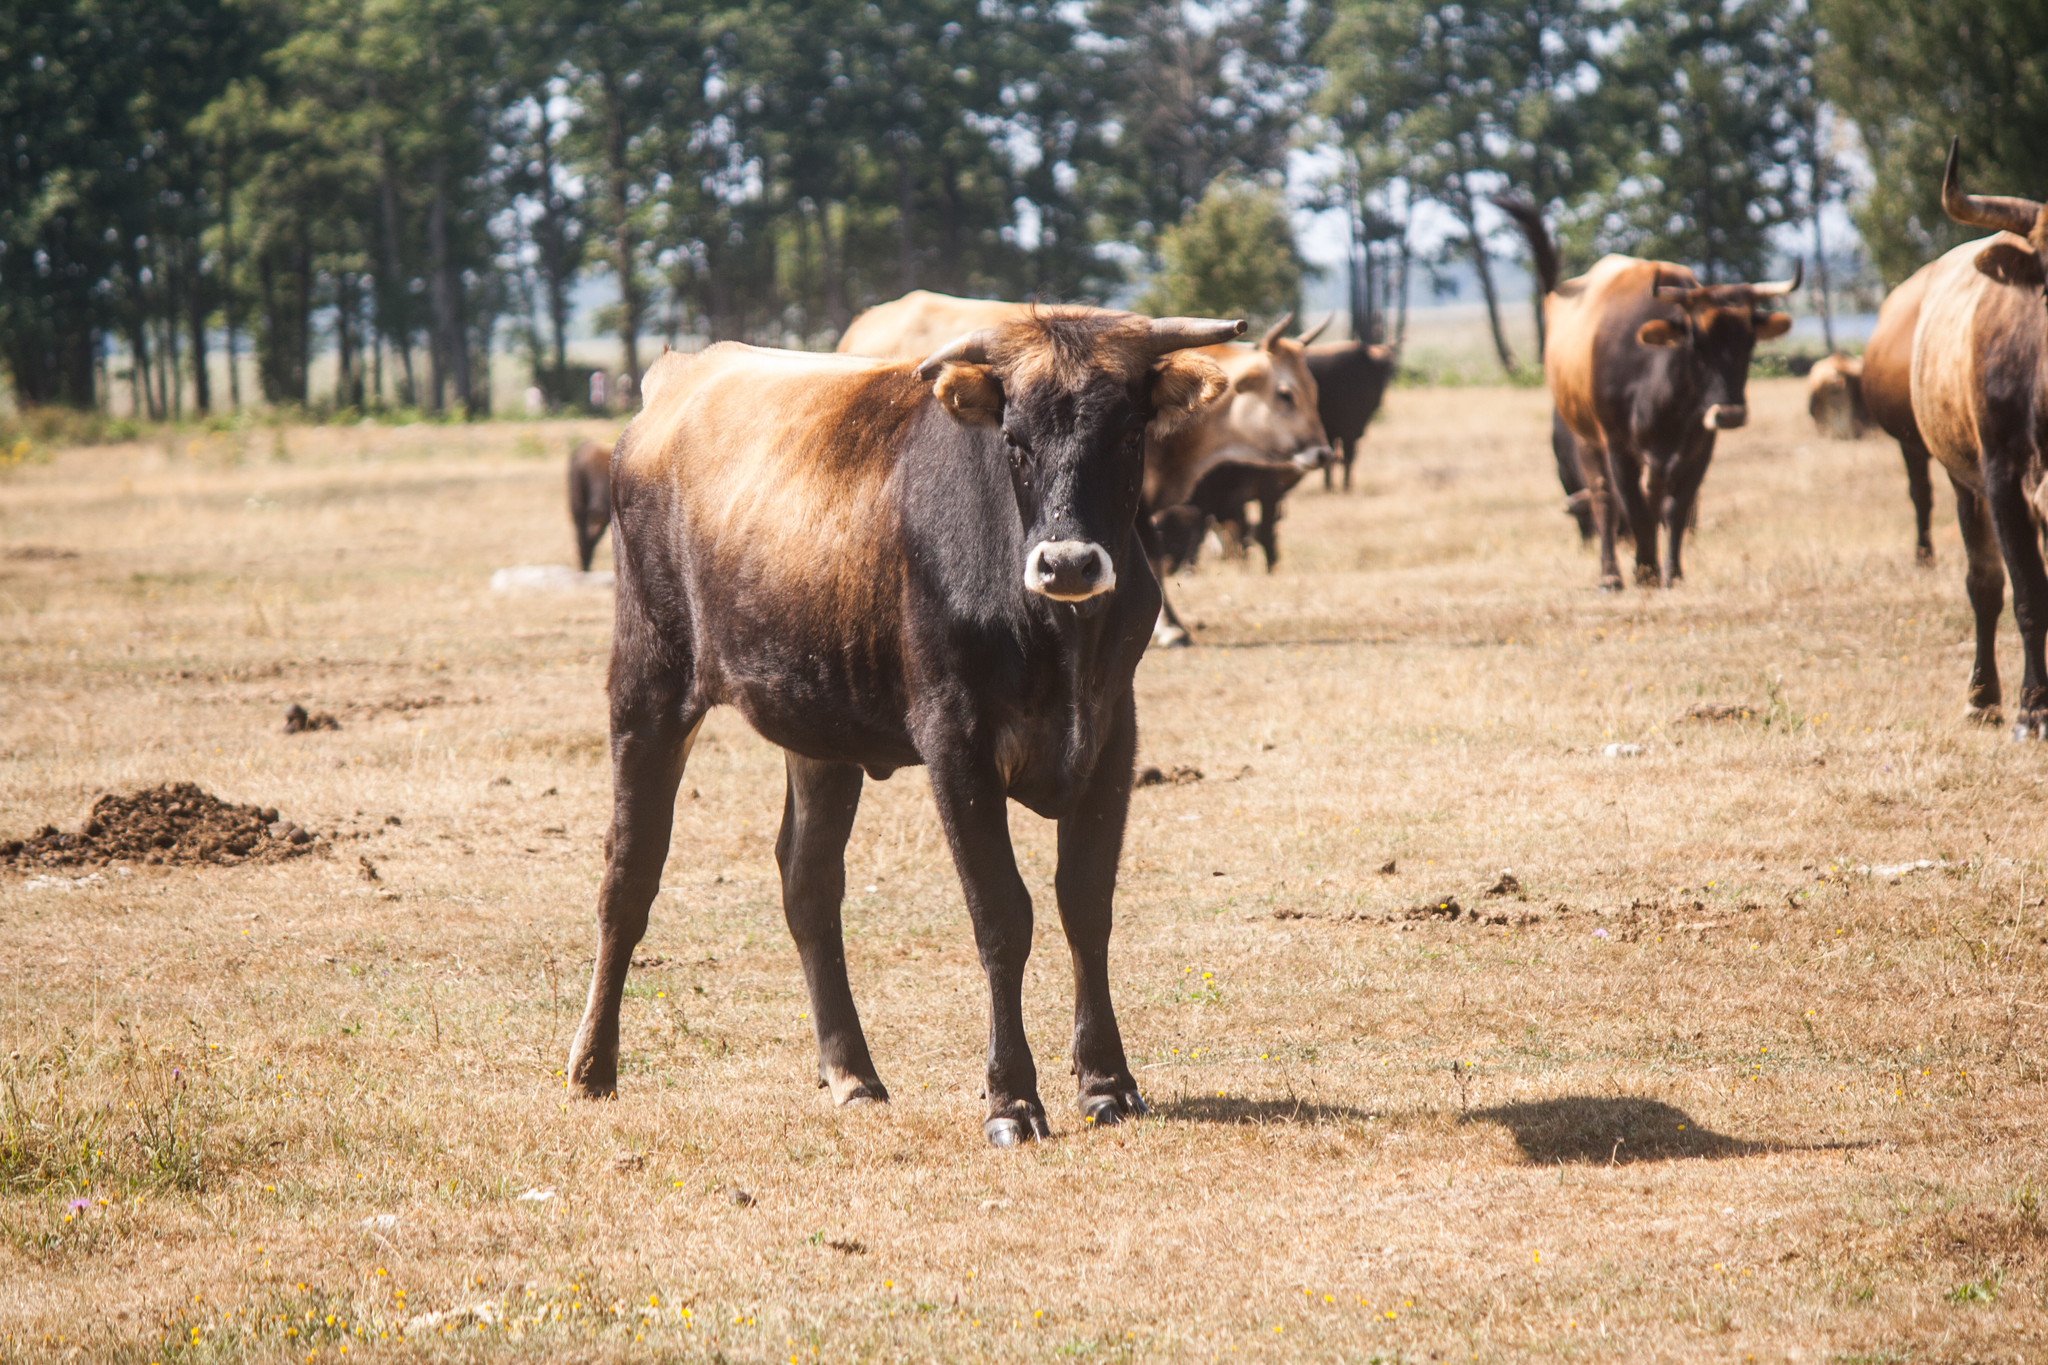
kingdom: Animalia
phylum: Chordata
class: Mammalia
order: Artiodactyla
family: Bovidae
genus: Bos
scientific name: Bos taurus
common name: Domesticated cattle
